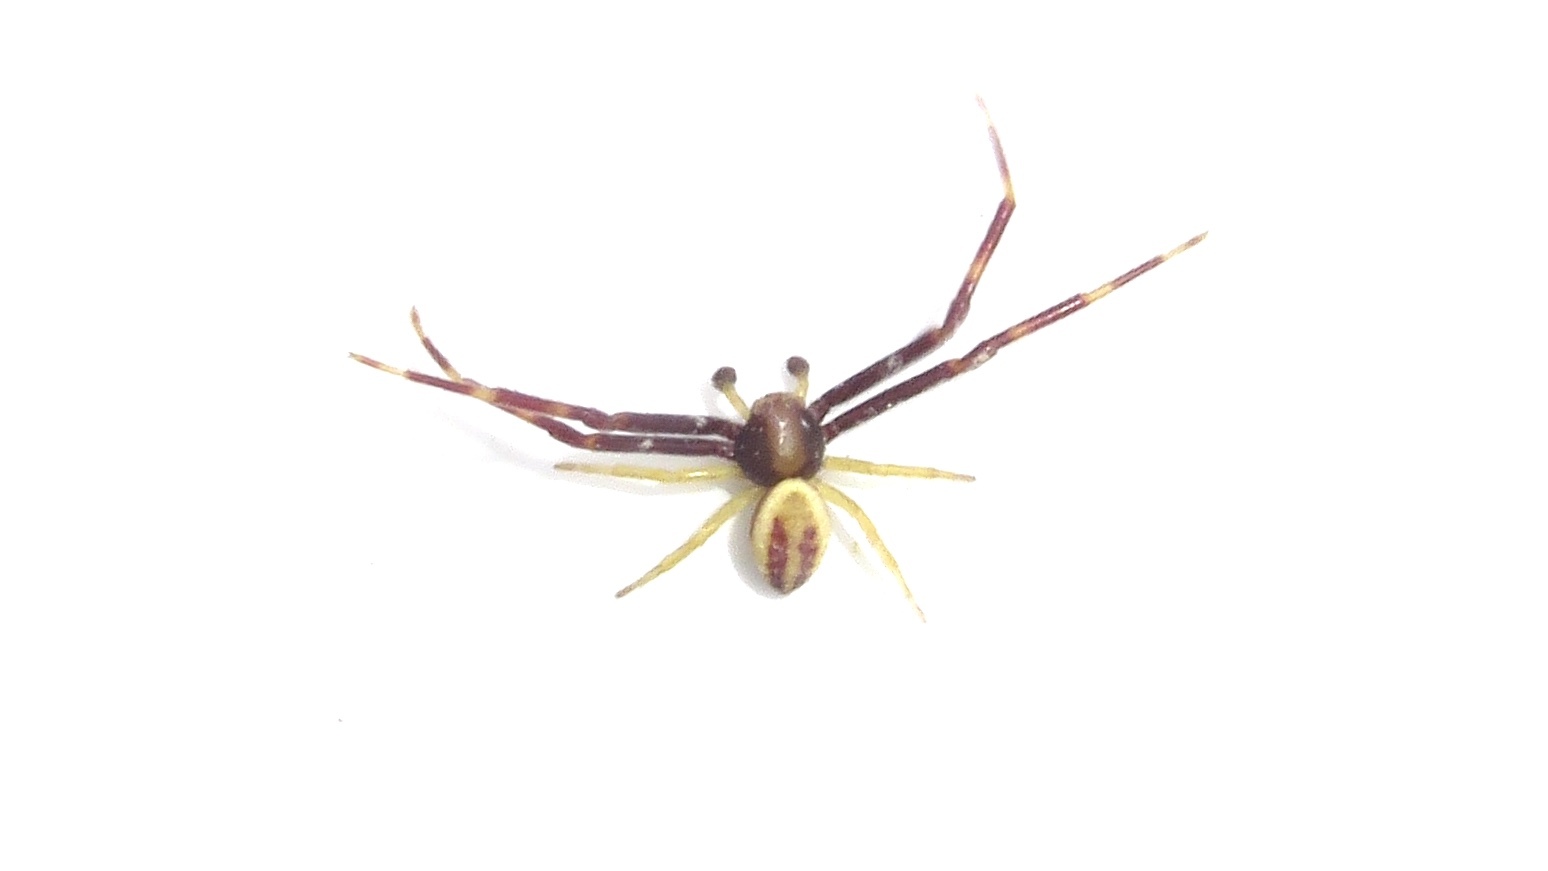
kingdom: Animalia
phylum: Arthropoda
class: Arachnida
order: Araneae
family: Thomisidae
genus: Misumena
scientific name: Misumena vatia
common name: Goldenrod crab spider
